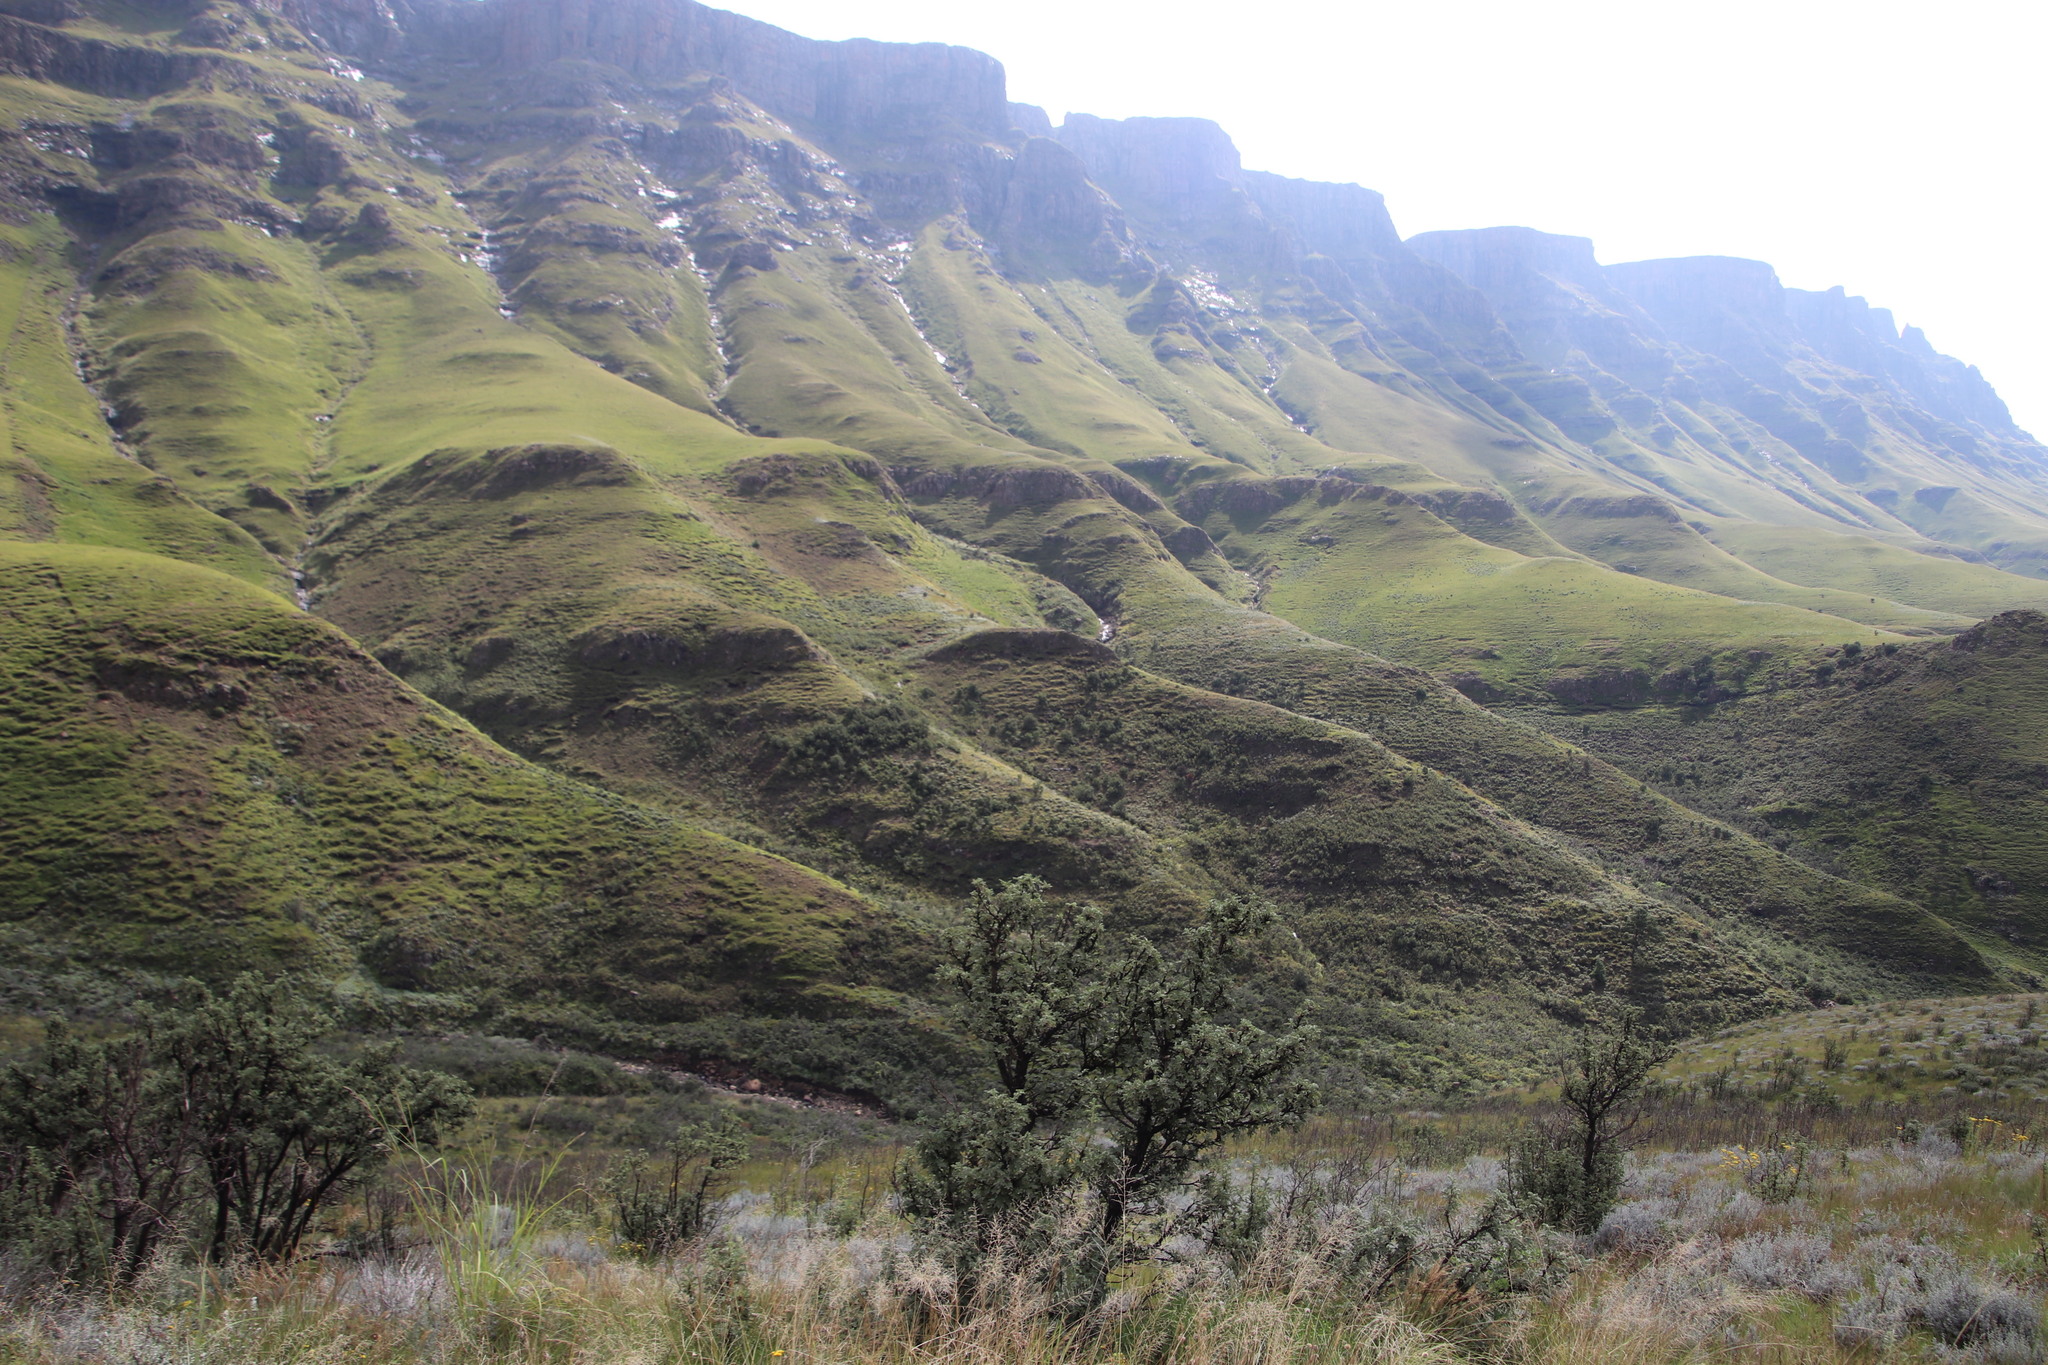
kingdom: Plantae
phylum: Tracheophyta
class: Magnoliopsida
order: Rosales
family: Rosaceae
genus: Leucosidea
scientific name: Leucosidea sericea
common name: Oldwood
